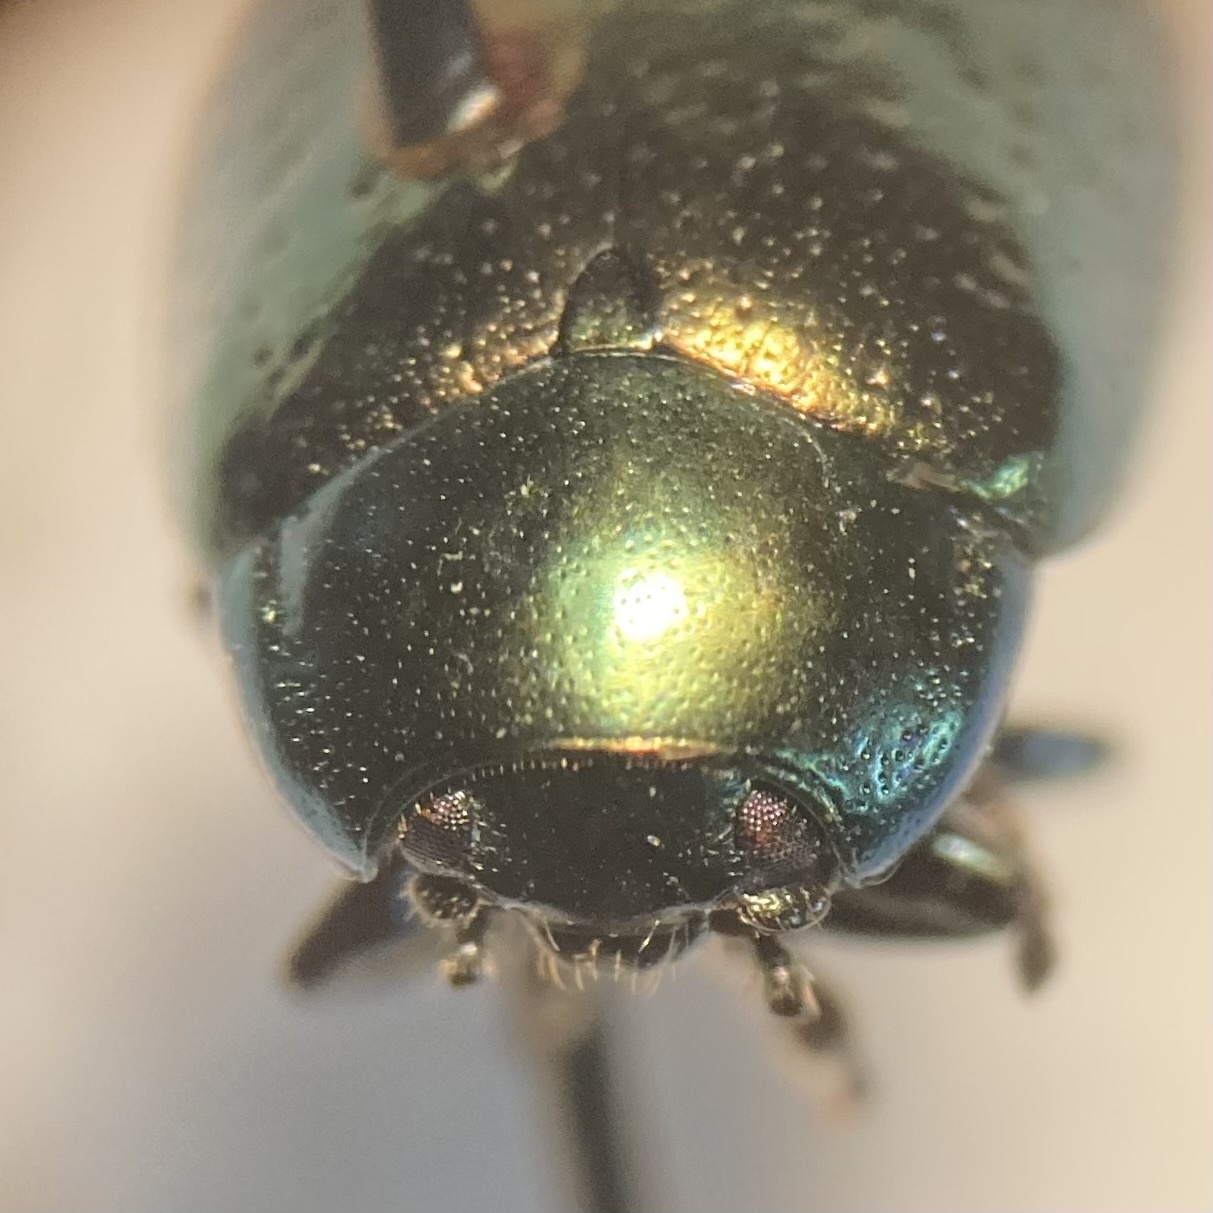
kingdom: Animalia
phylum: Arthropoda
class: Insecta
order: Coleoptera
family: Chrysomelidae
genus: Chrysolina
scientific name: Chrysolina hyperici
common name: St. johnswort beetle
